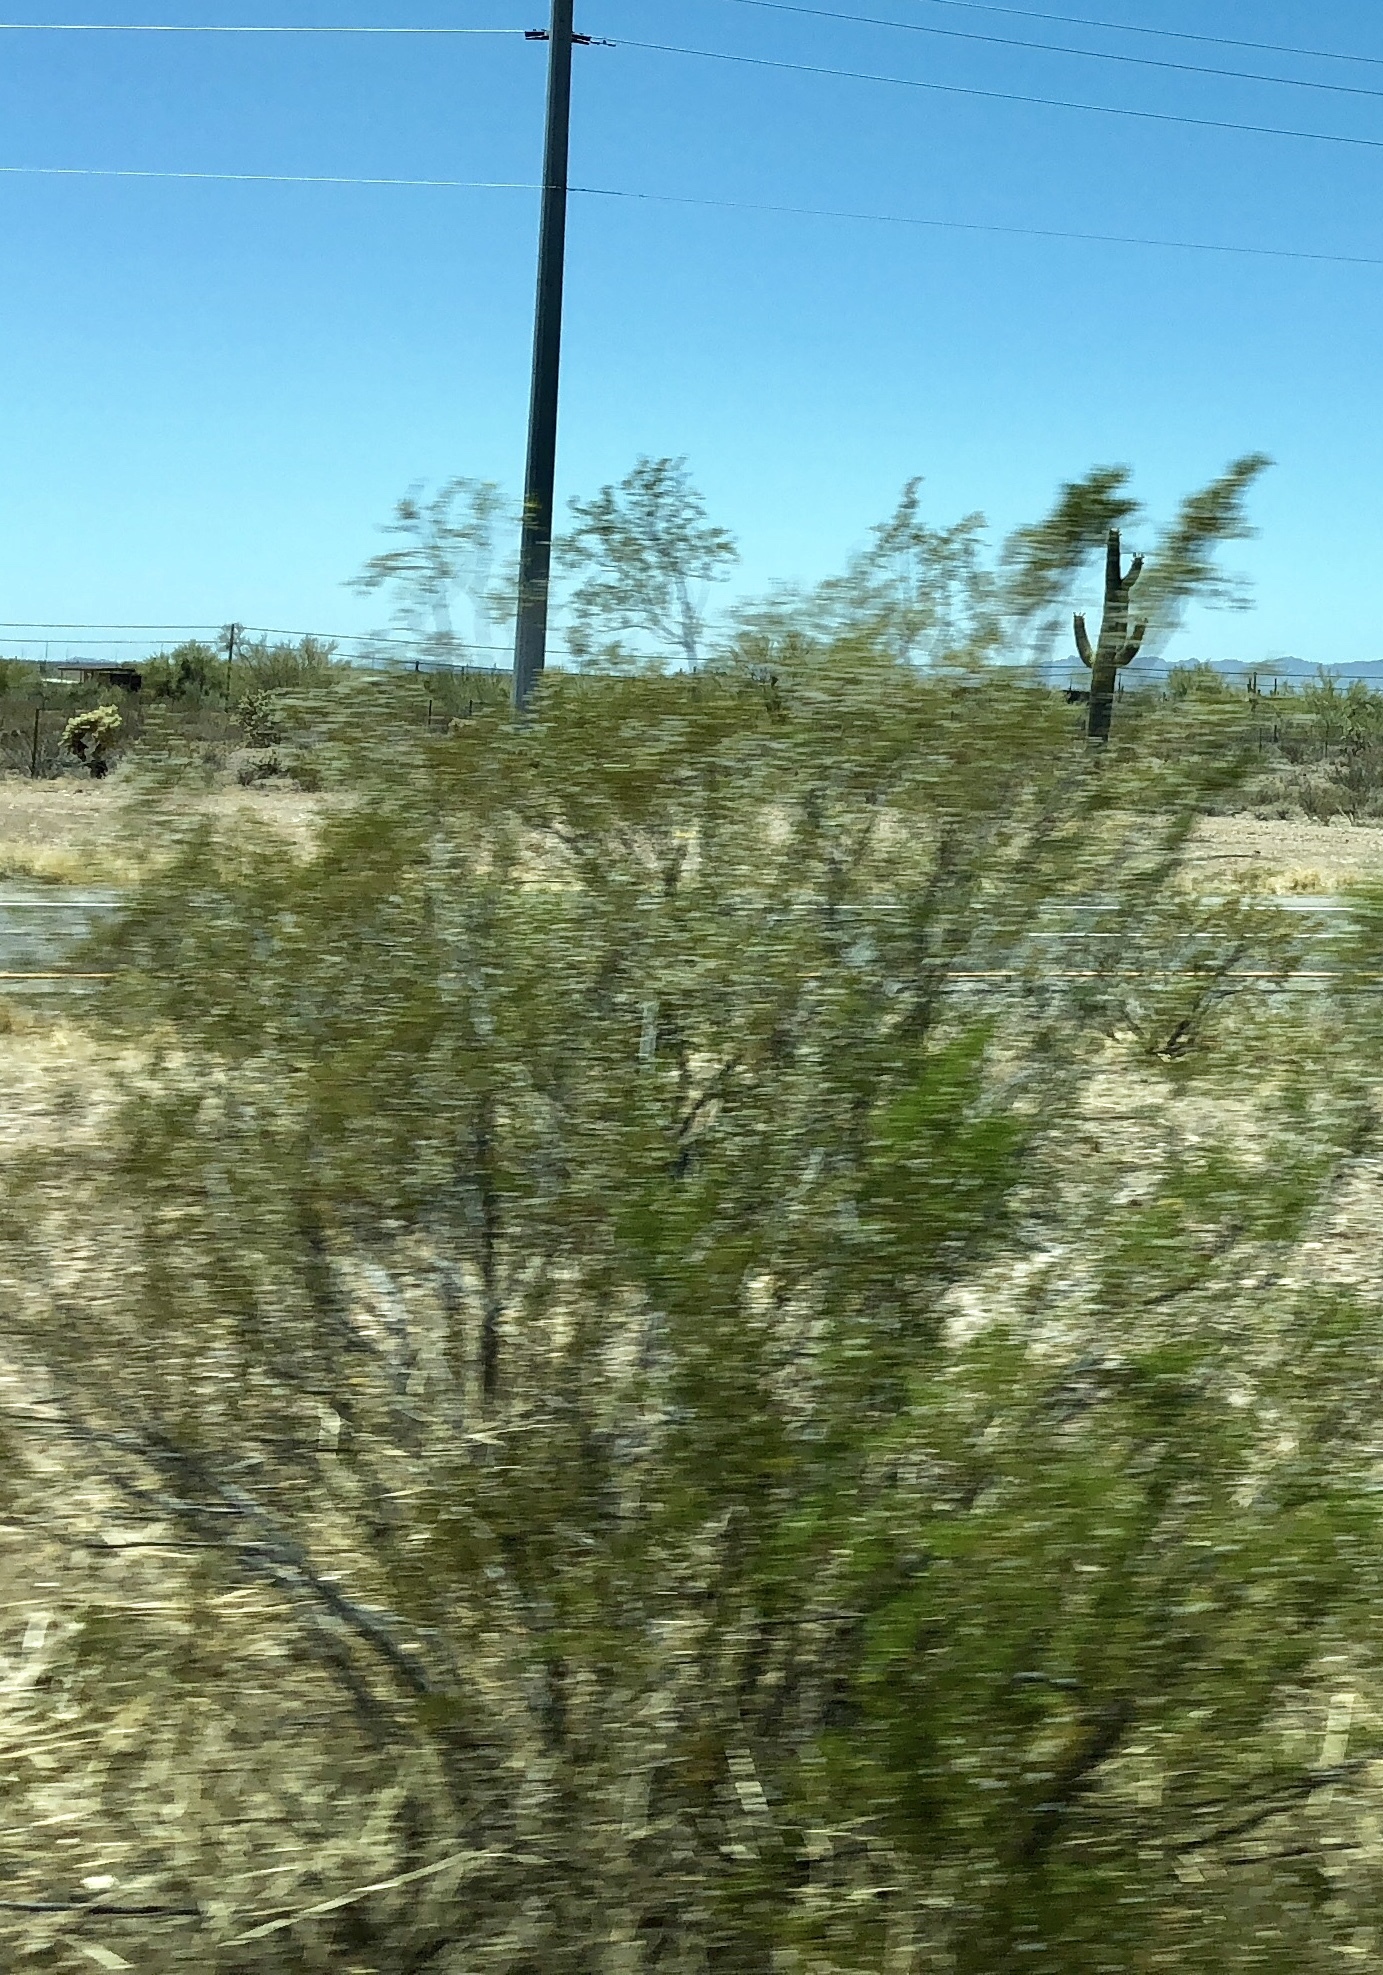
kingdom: Plantae
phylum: Tracheophyta
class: Magnoliopsida
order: Zygophyllales
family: Zygophyllaceae
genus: Larrea
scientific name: Larrea tridentata
